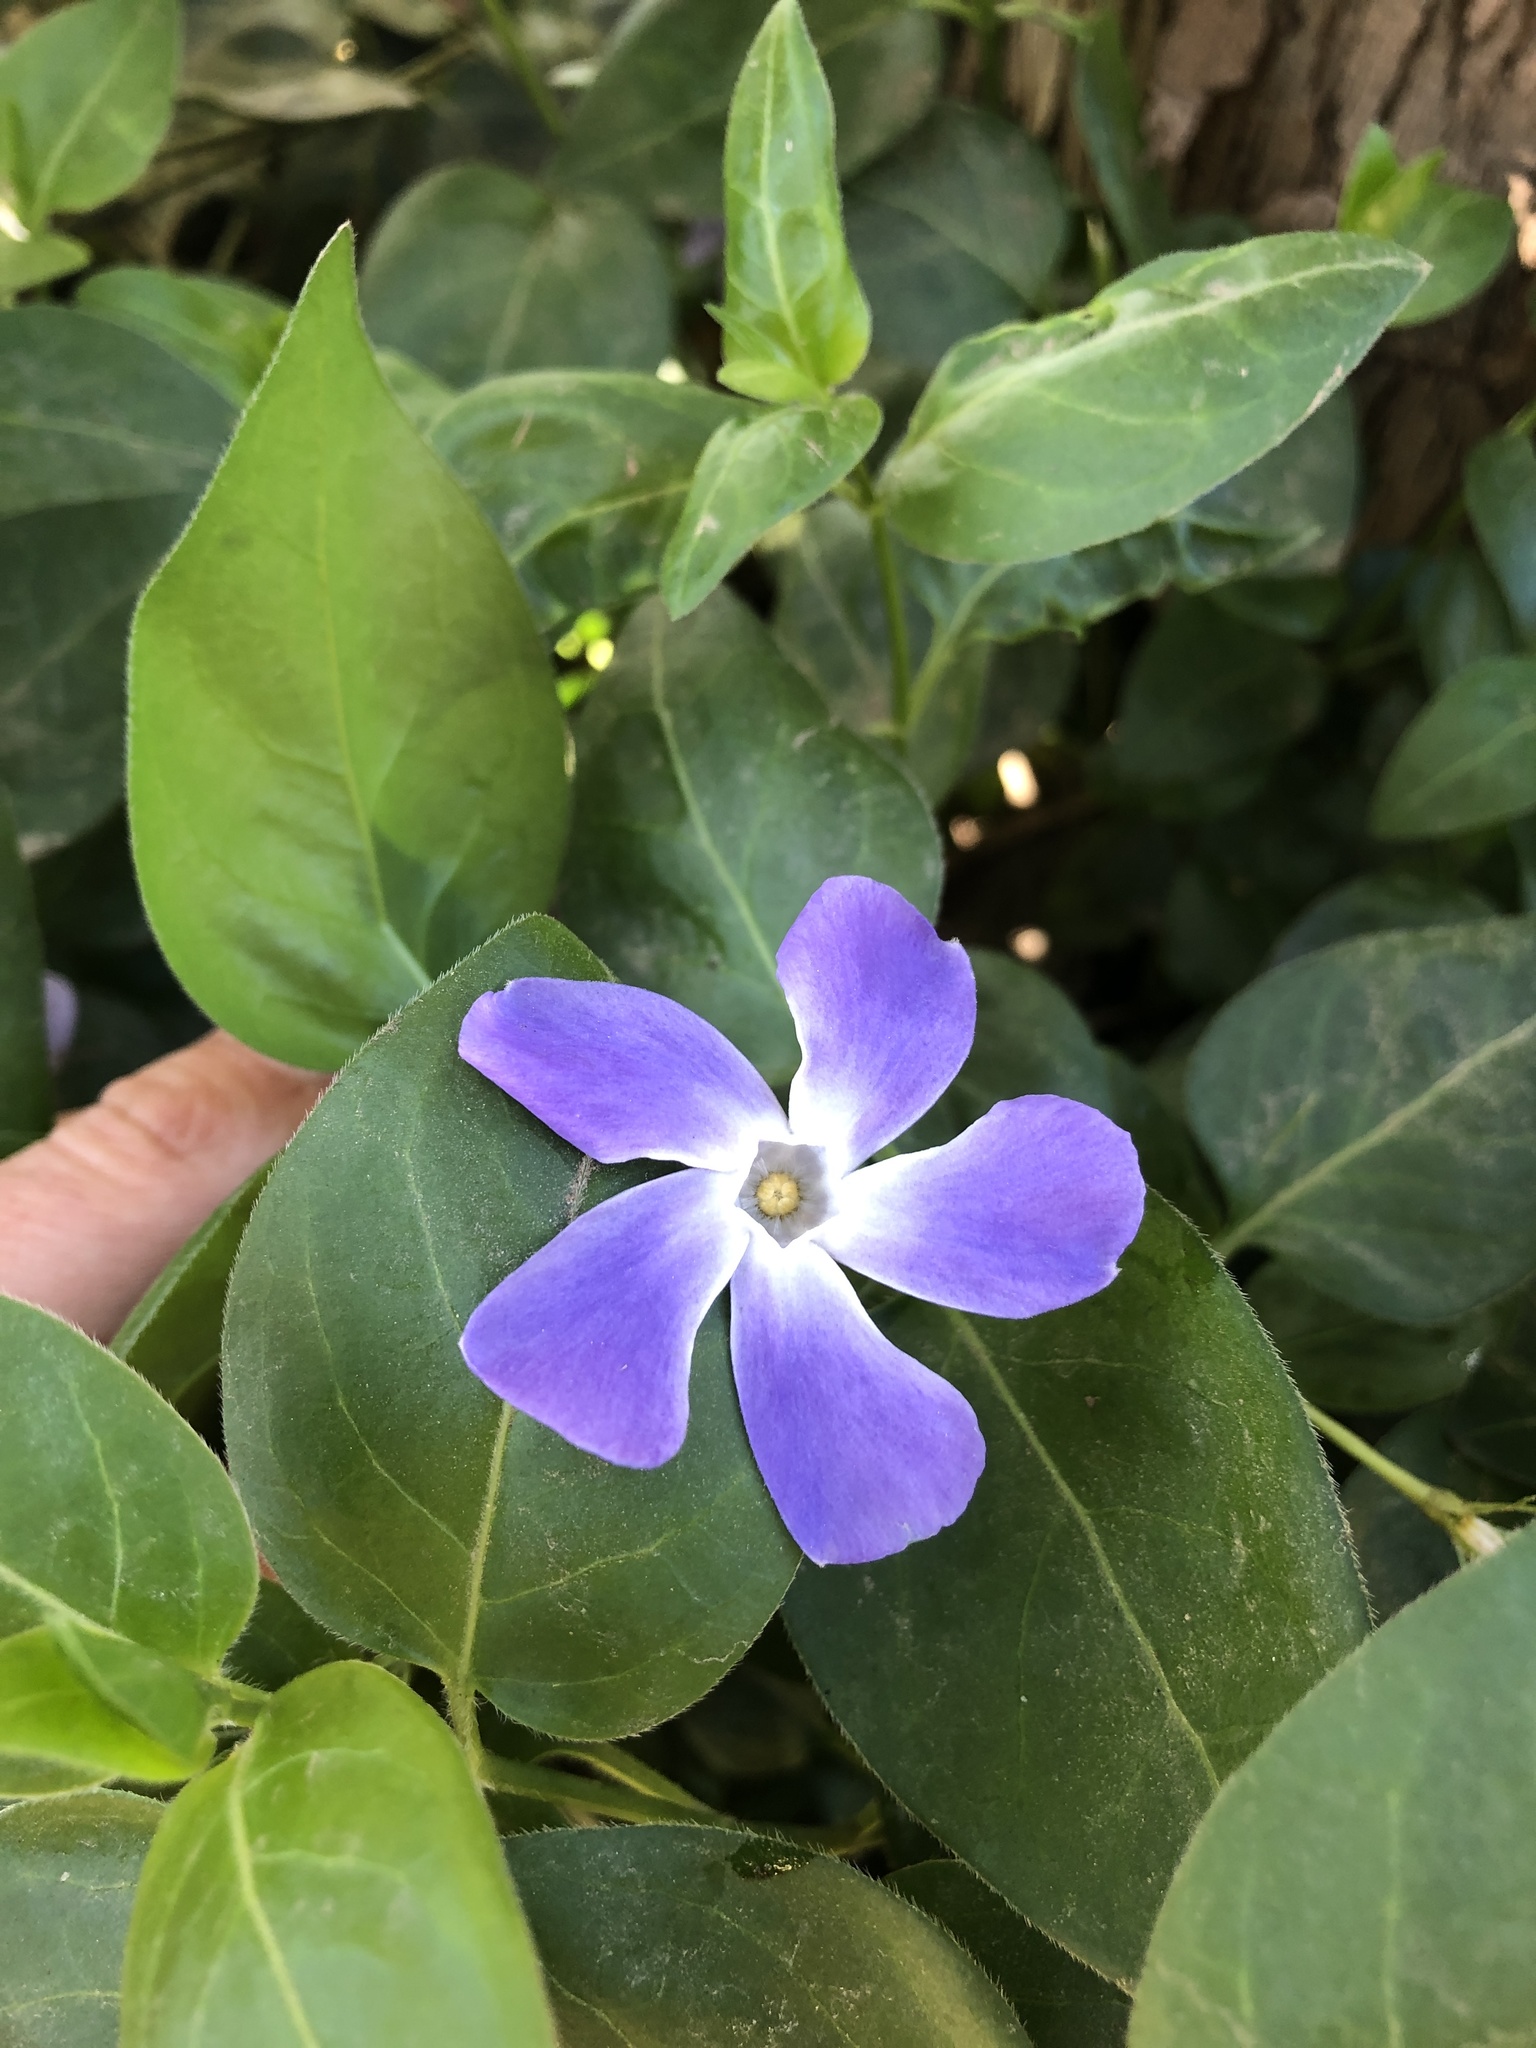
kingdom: Plantae
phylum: Tracheophyta
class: Magnoliopsida
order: Gentianales
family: Apocynaceae
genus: Vinca
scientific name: Vinca major
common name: Greater periwinkle
